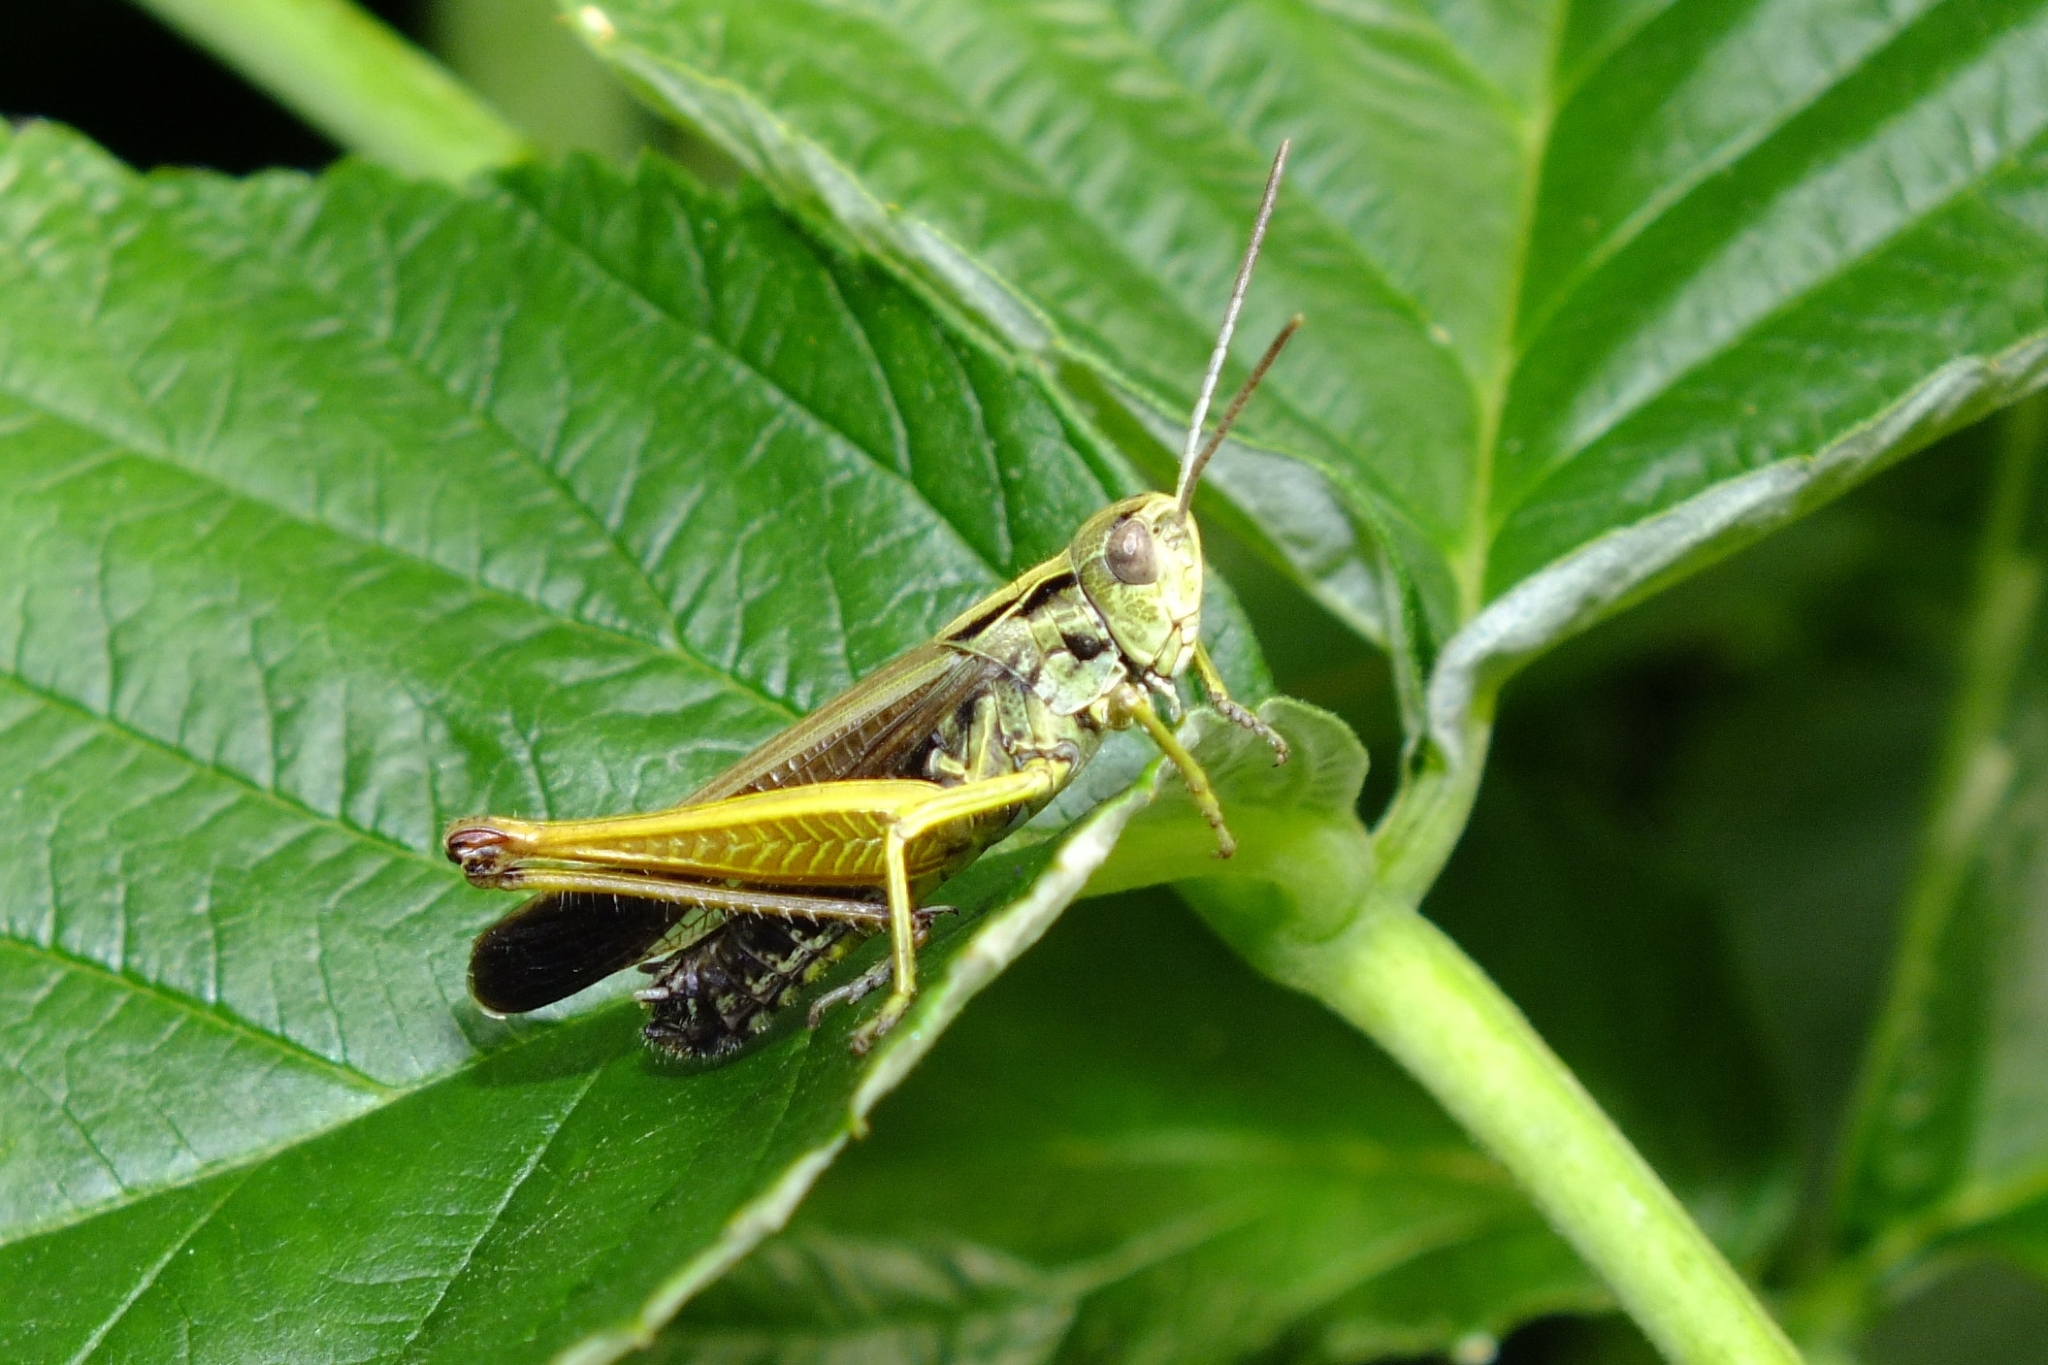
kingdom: Animalia
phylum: Arthropoda
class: Insecta
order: Orthoptera
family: Acrididae
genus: Omocestus
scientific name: Omocestus viridulus
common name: Common green grasshopper
